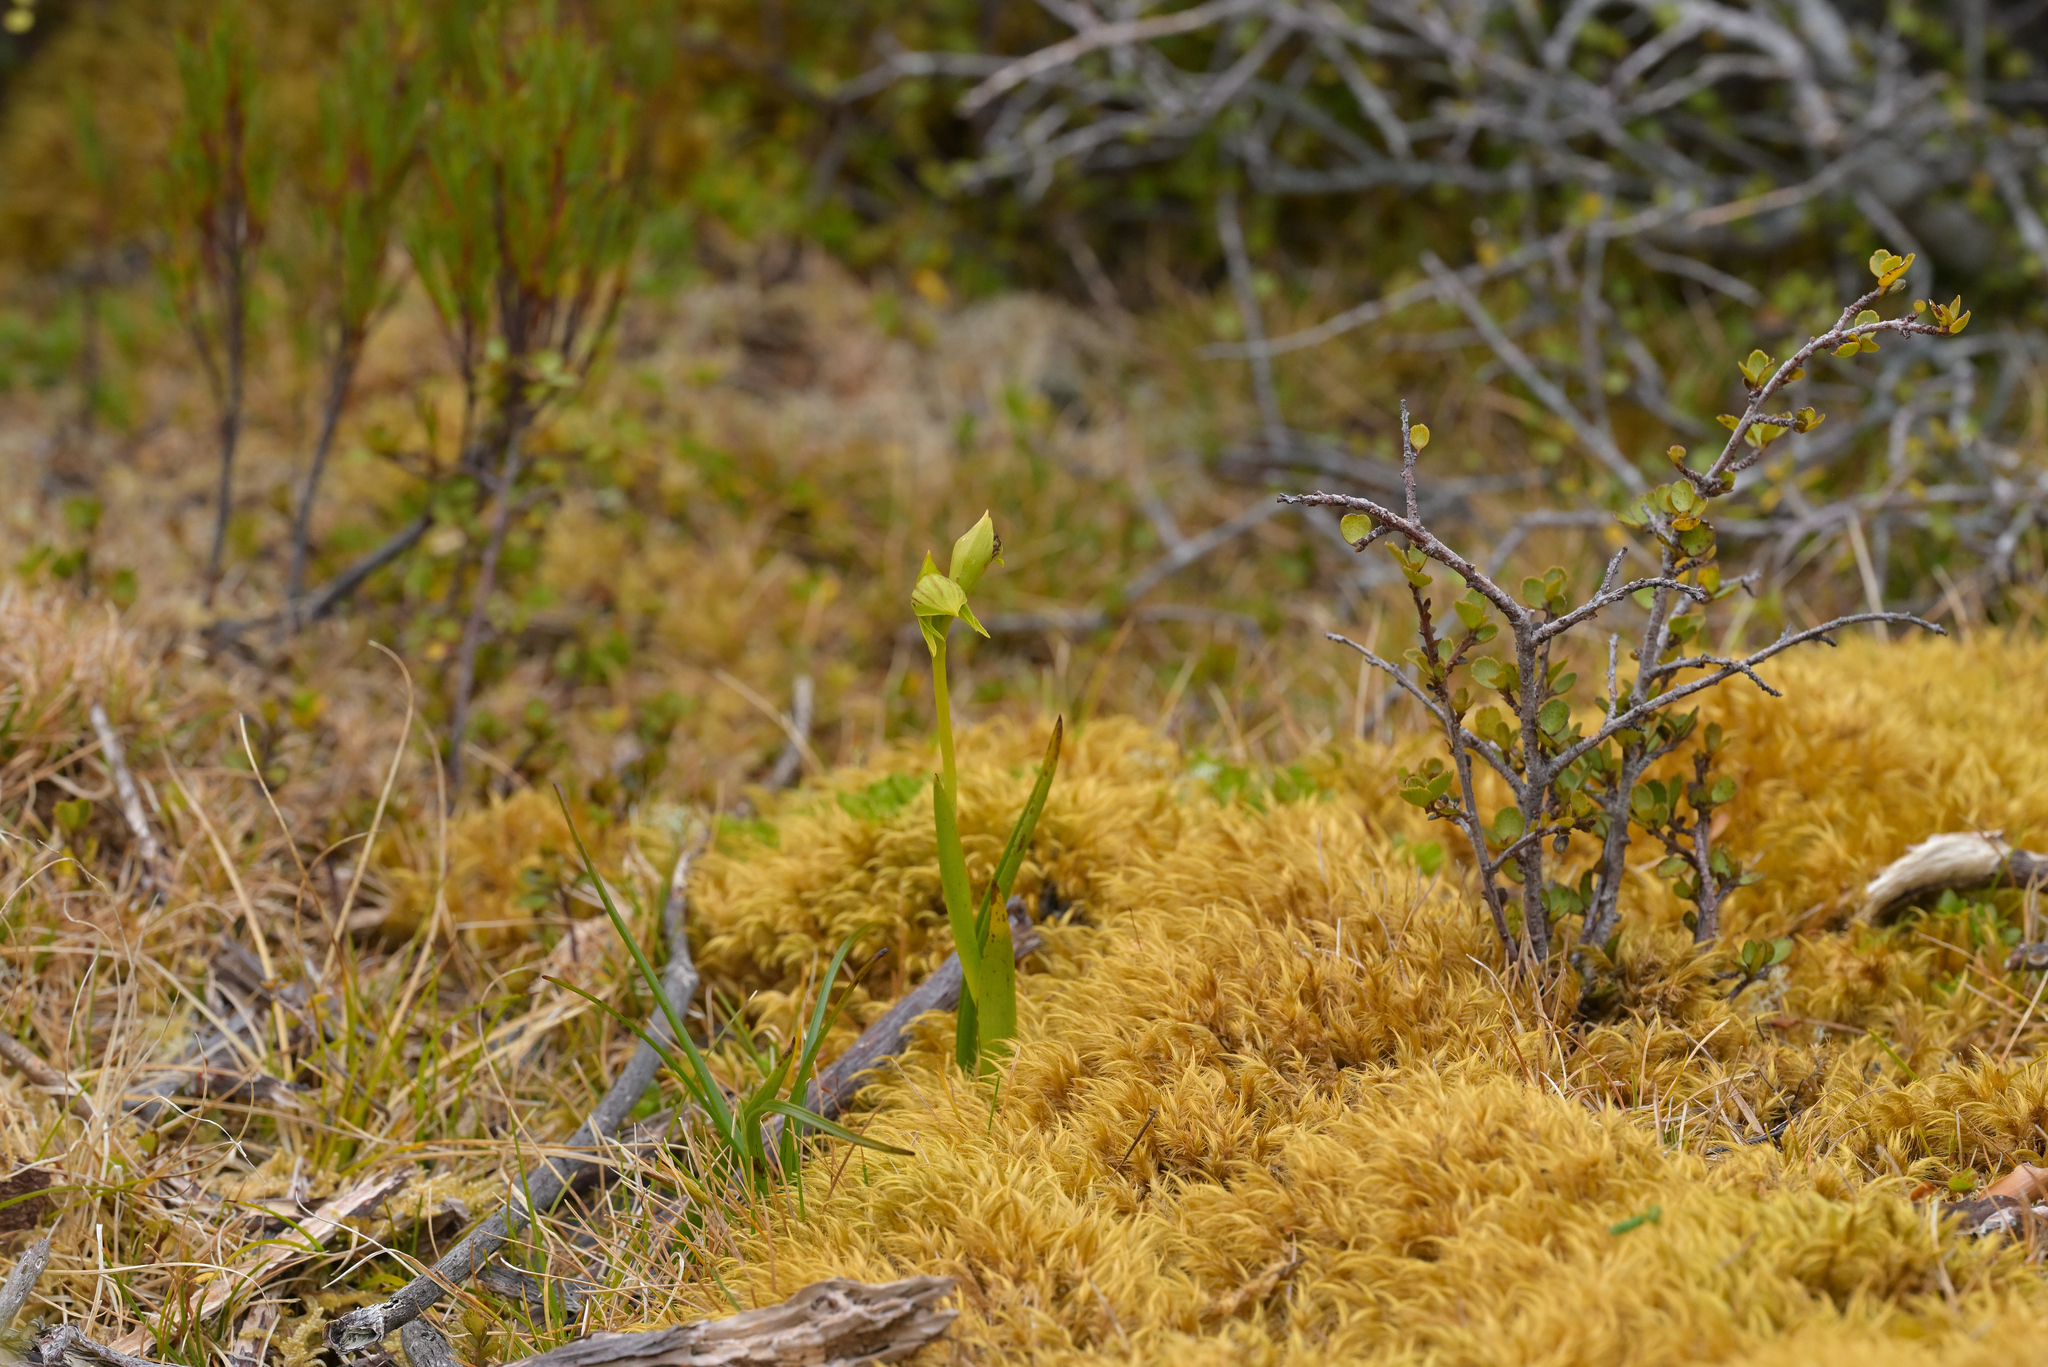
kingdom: Plantae
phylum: Tracheophyta
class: Liliopsida
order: Asparagales
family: Orchidaceae
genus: Waireia
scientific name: Waireia stenopetala
